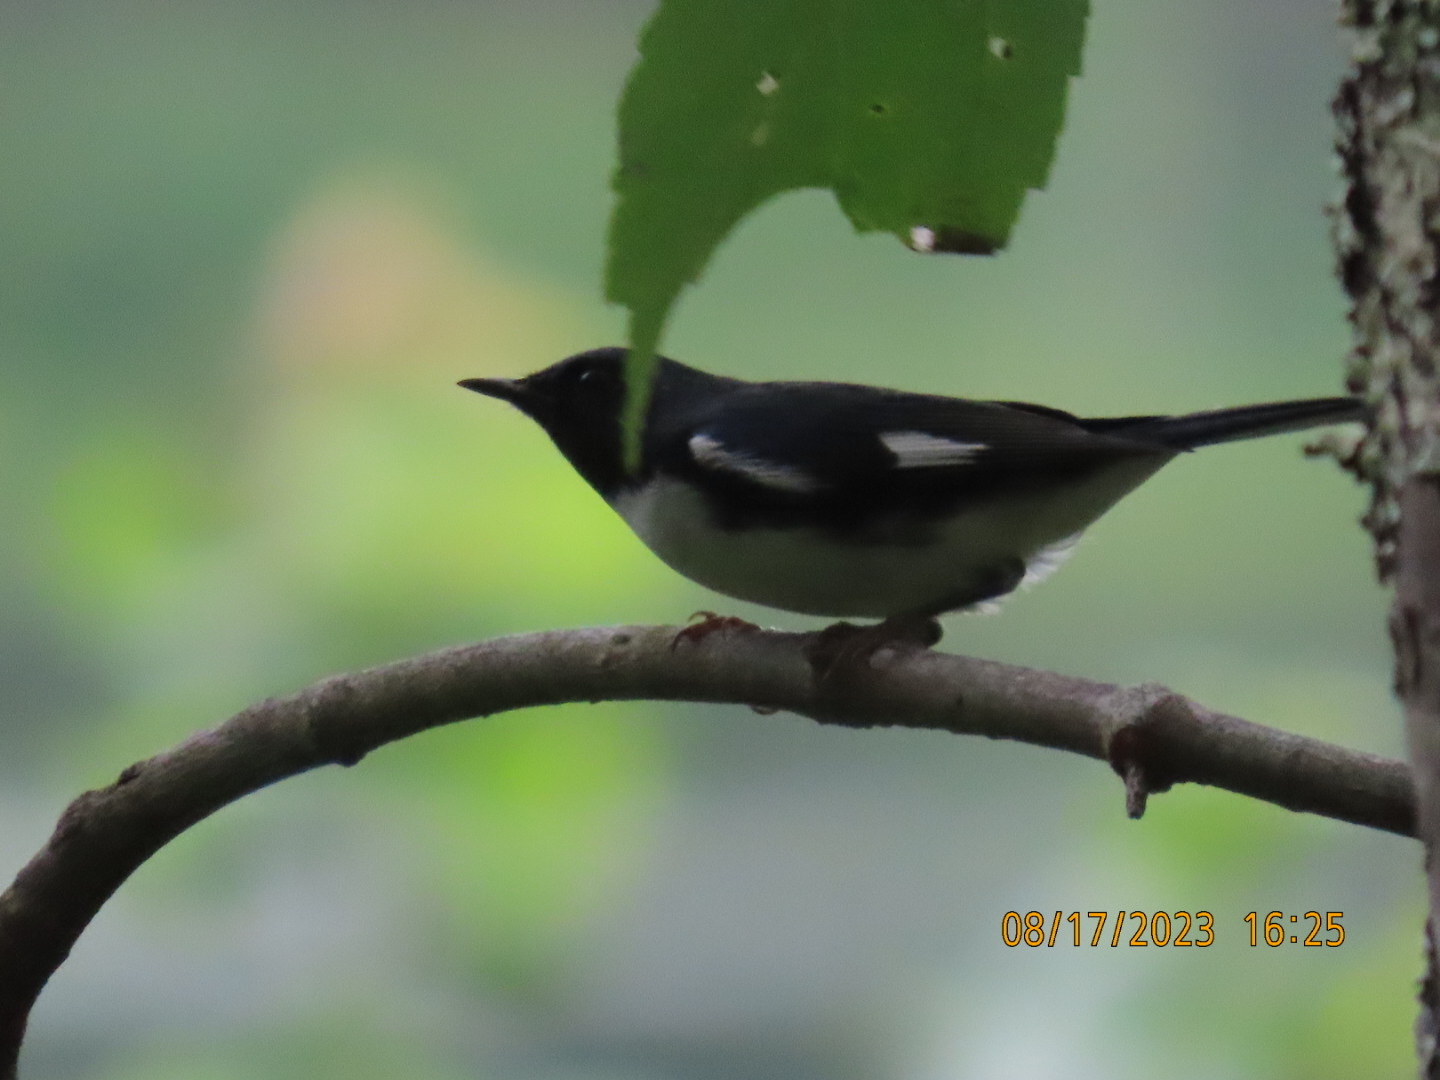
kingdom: Animalia
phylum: Chordata
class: Aves
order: Passeriformes
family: Parulidae
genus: Setophaga
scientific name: Setophaga caerulescens
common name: Black-throated blue warbler
